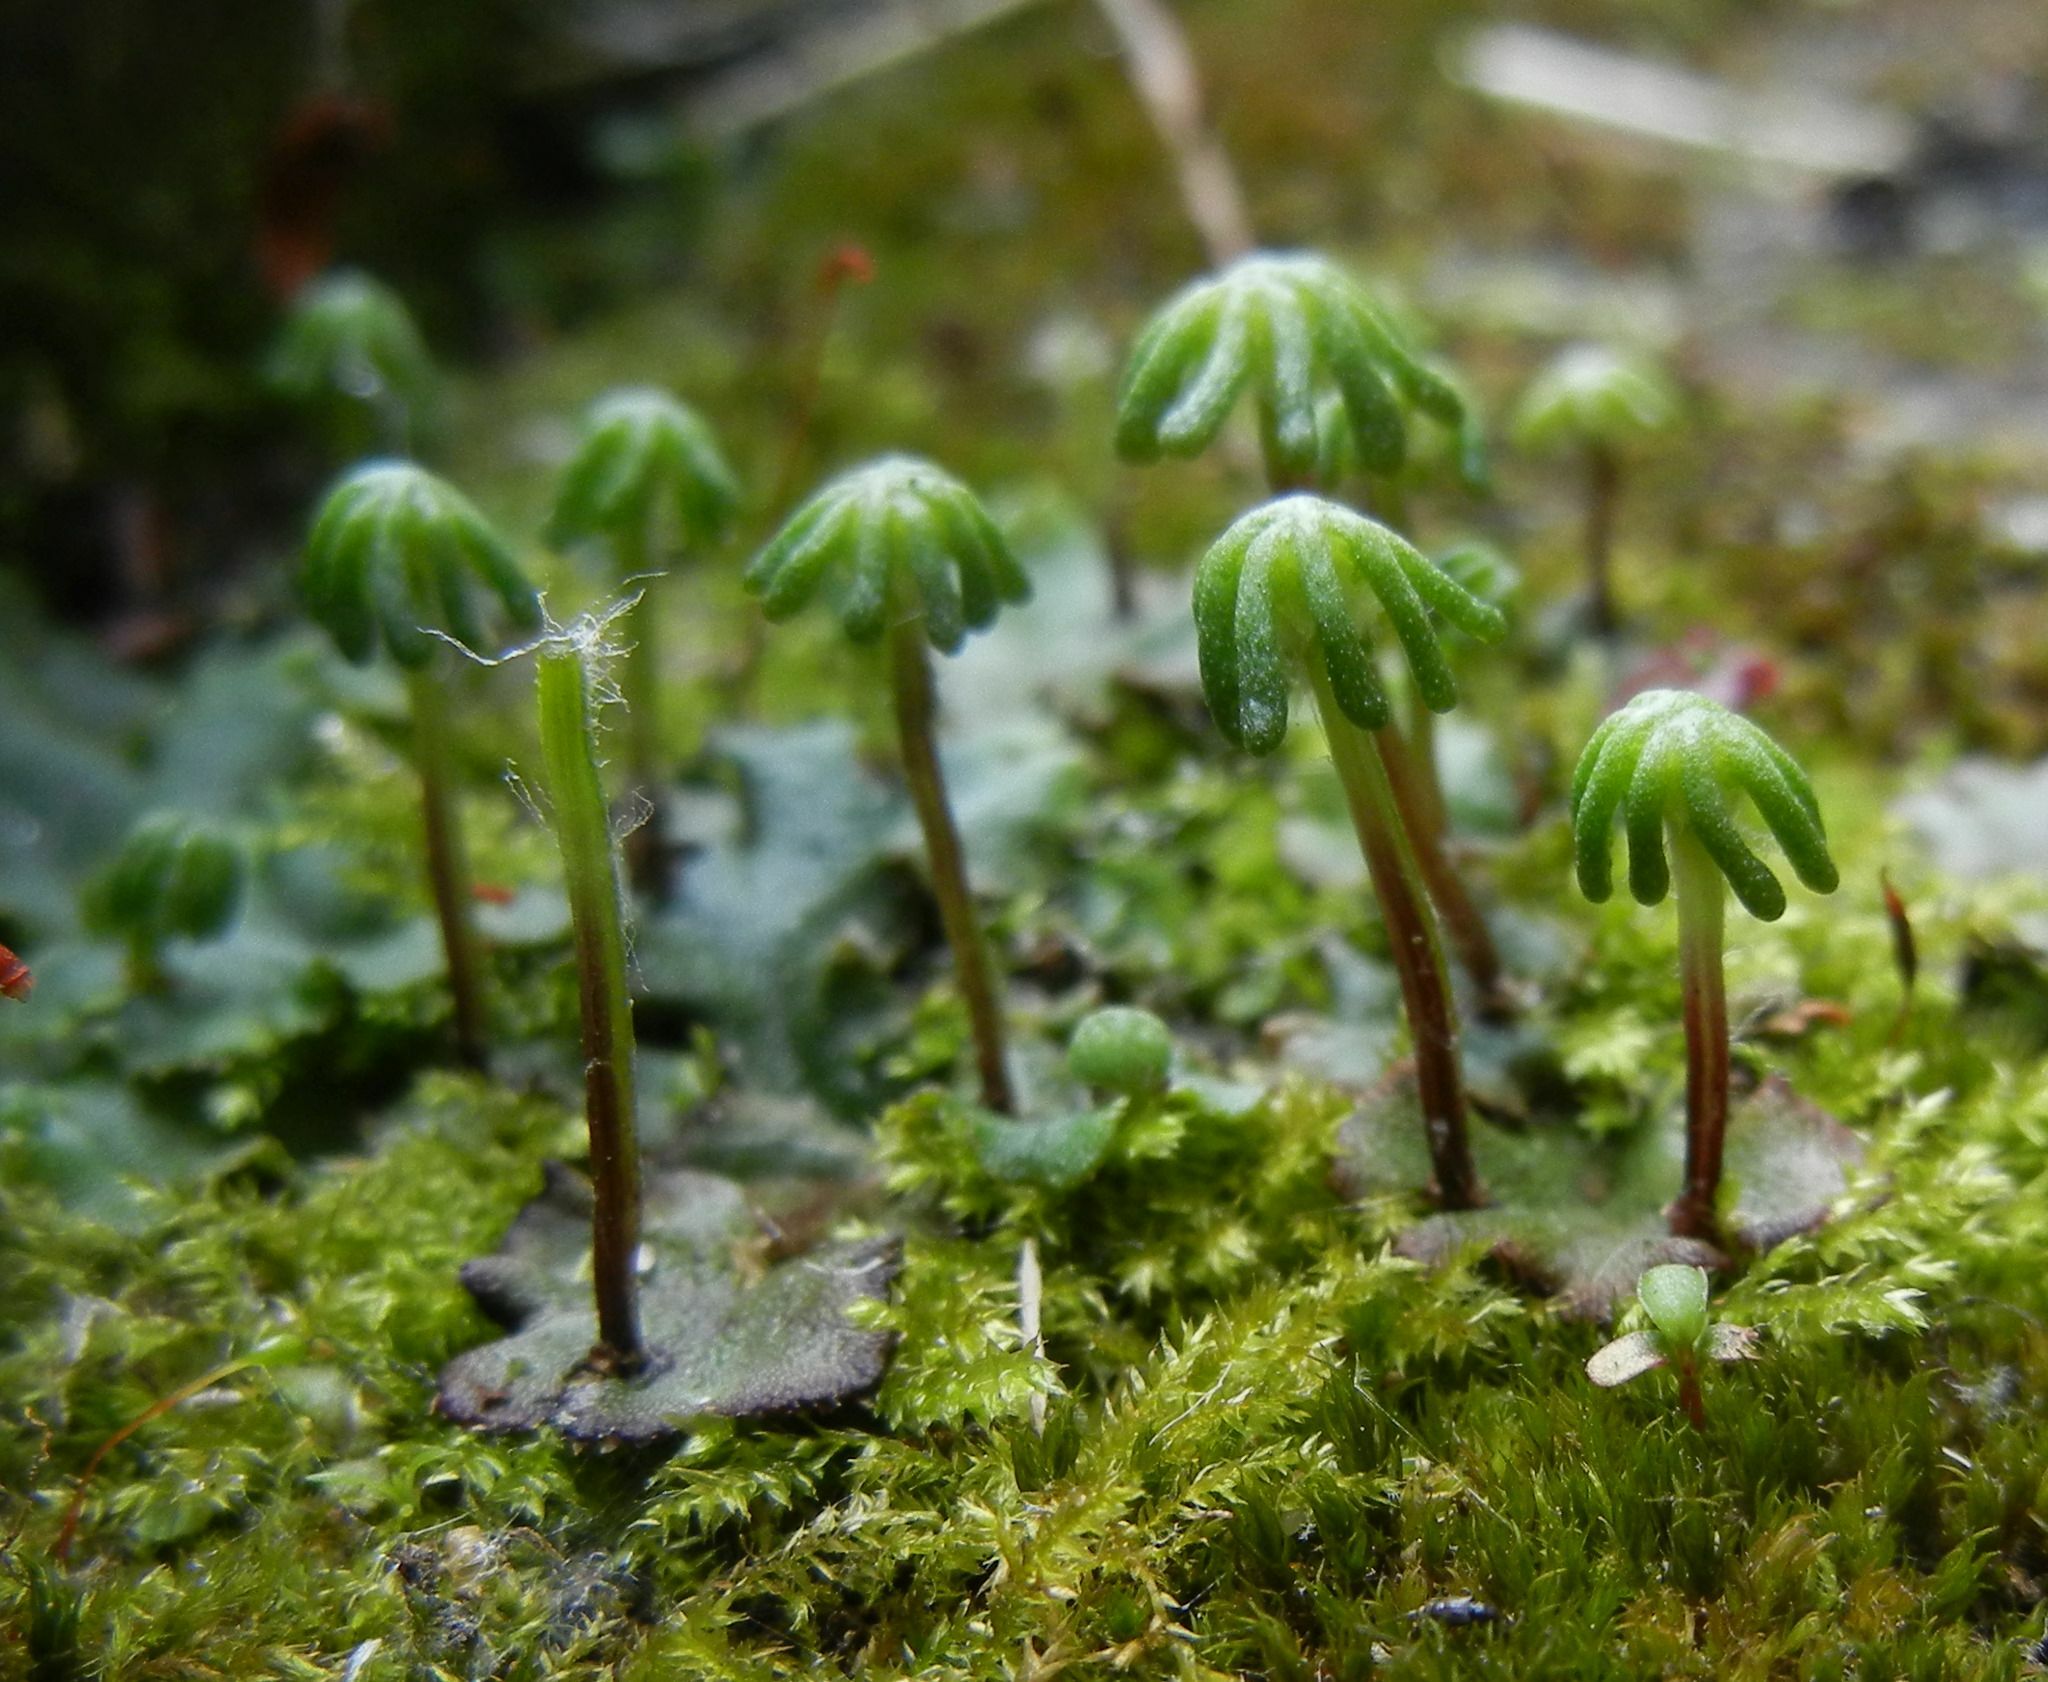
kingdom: Plantae
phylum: Marchantiophyta
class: Marchantiopsida
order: Marchantiales
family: Marchantiaceae
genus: Marchantia
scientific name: Marchantia polymorpha
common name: Common liverwort
